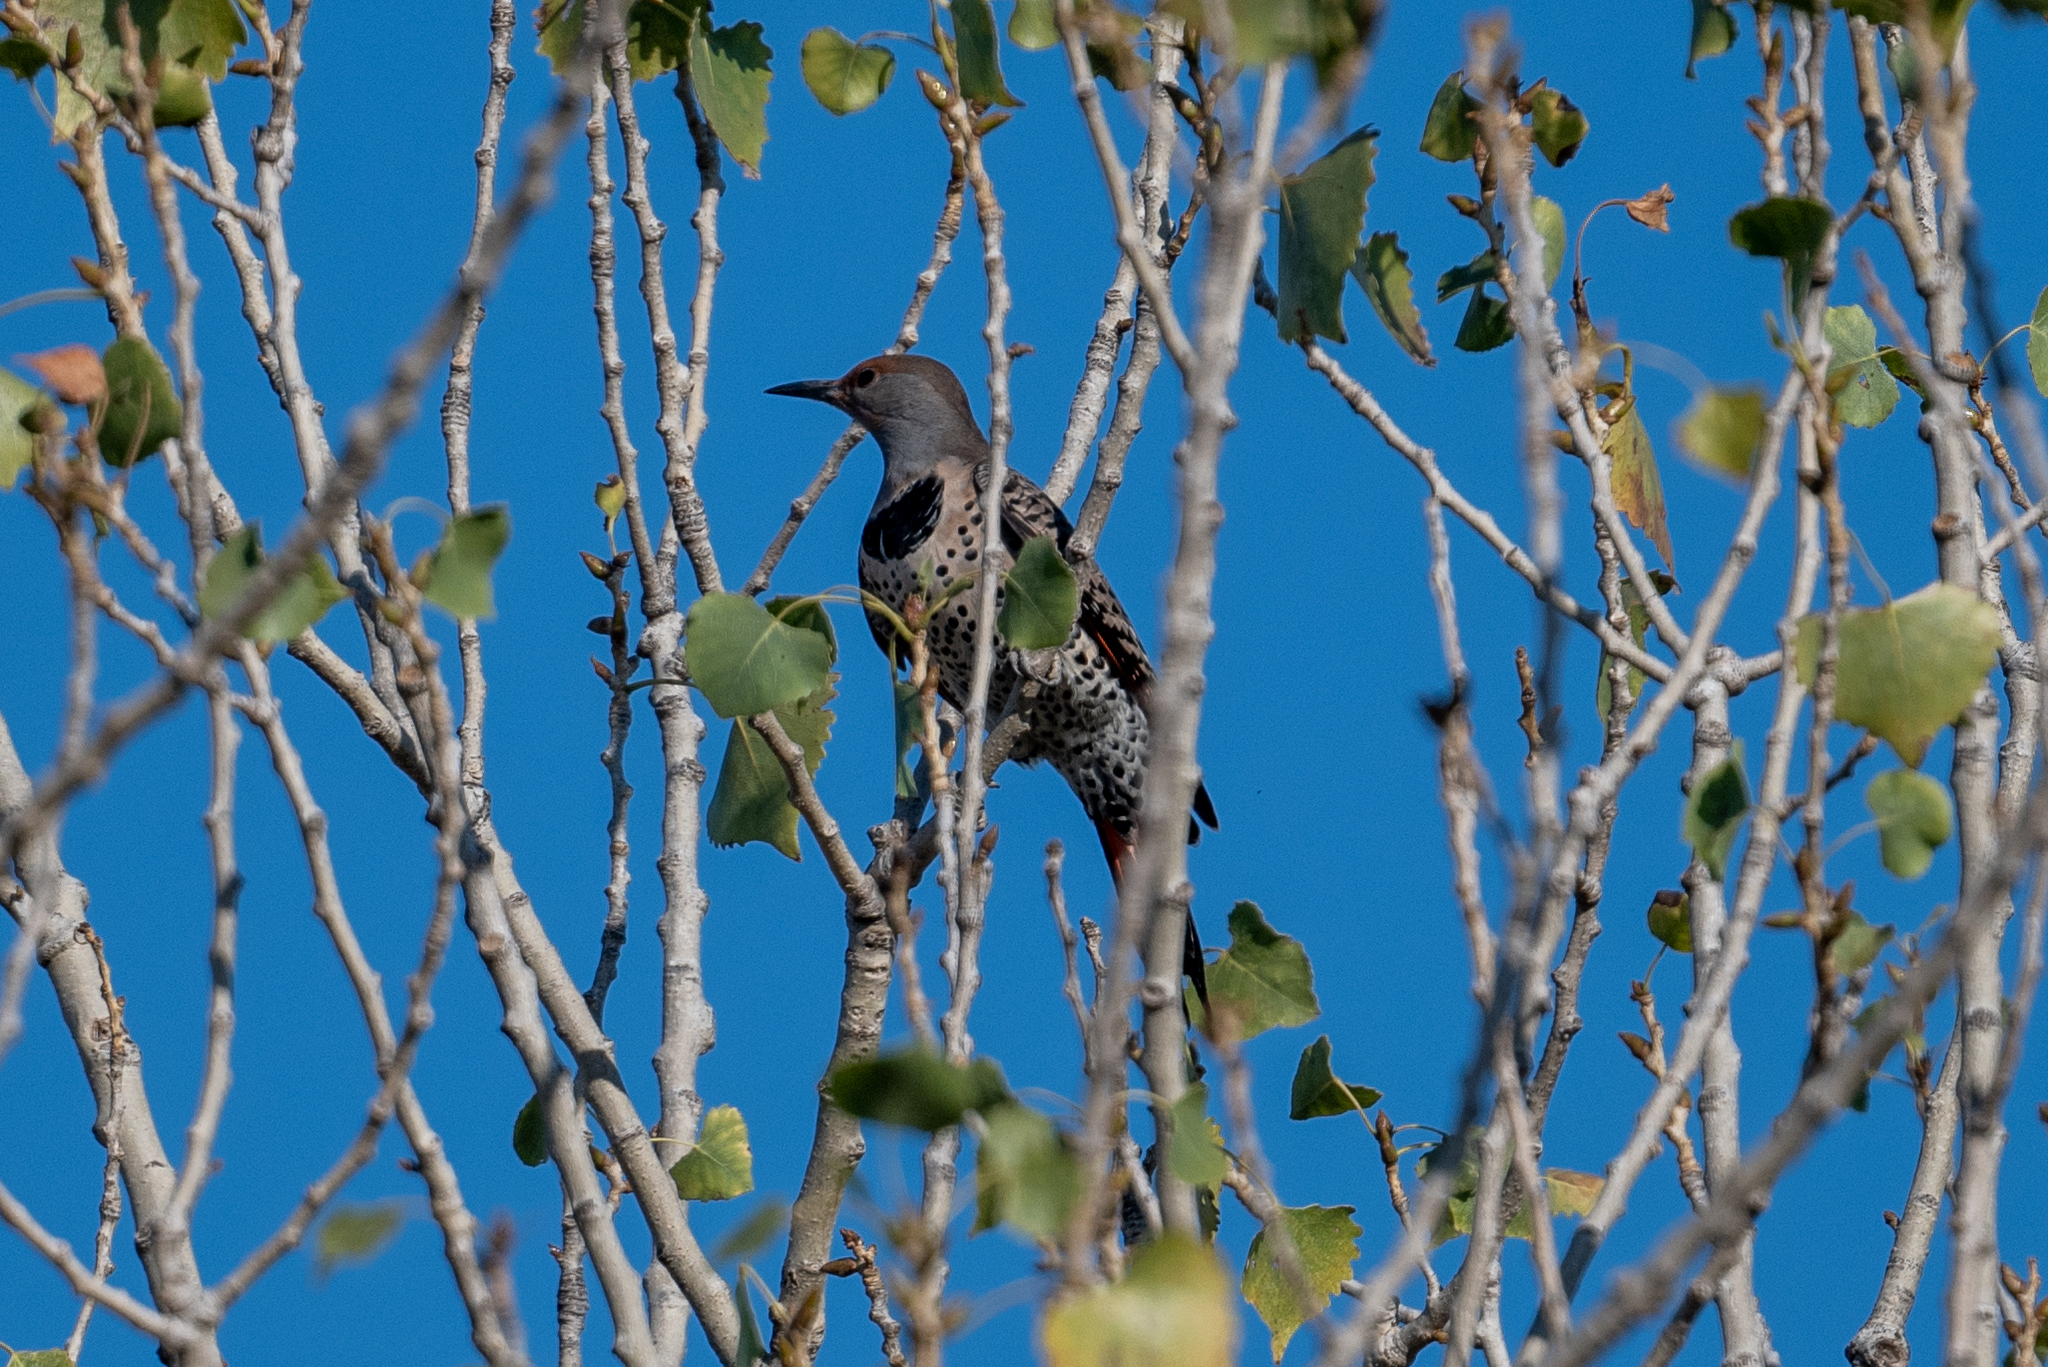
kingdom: Animalia
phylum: Chordata
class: Aves
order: Piciformes
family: Picidae
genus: Colaptes
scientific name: Colaptes auratus
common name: Northern flicker
